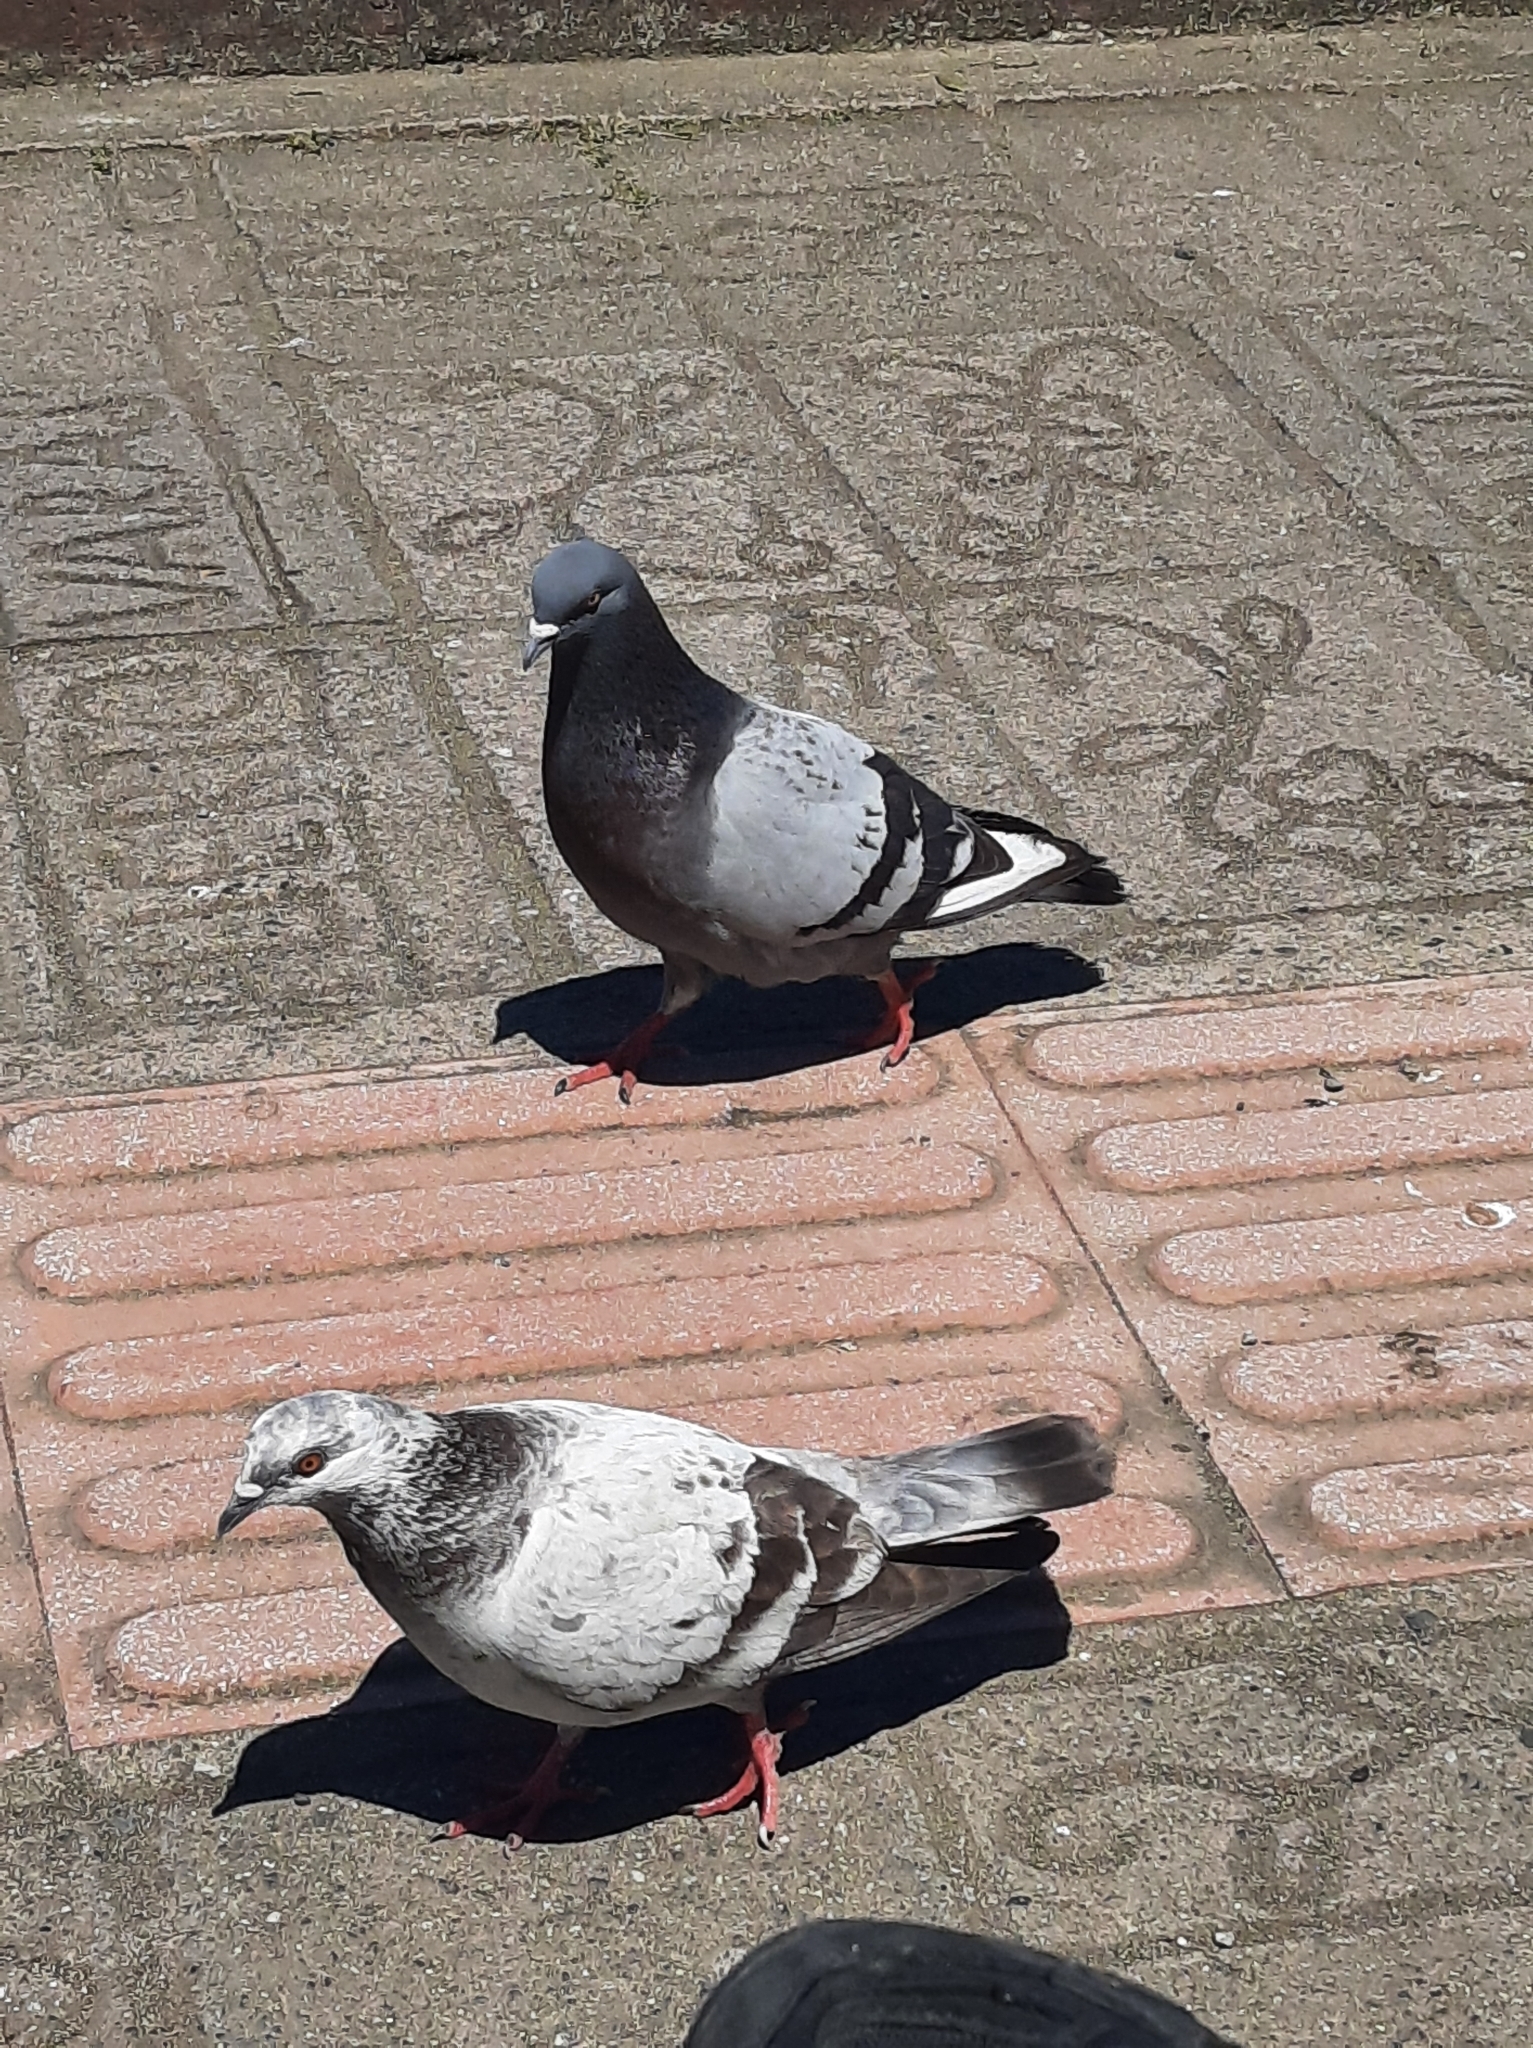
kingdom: Animalia
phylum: Chordata
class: Aves
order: Columbiformes
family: Columbidae
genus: Columba
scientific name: Columba livia
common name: Rock pigeon
